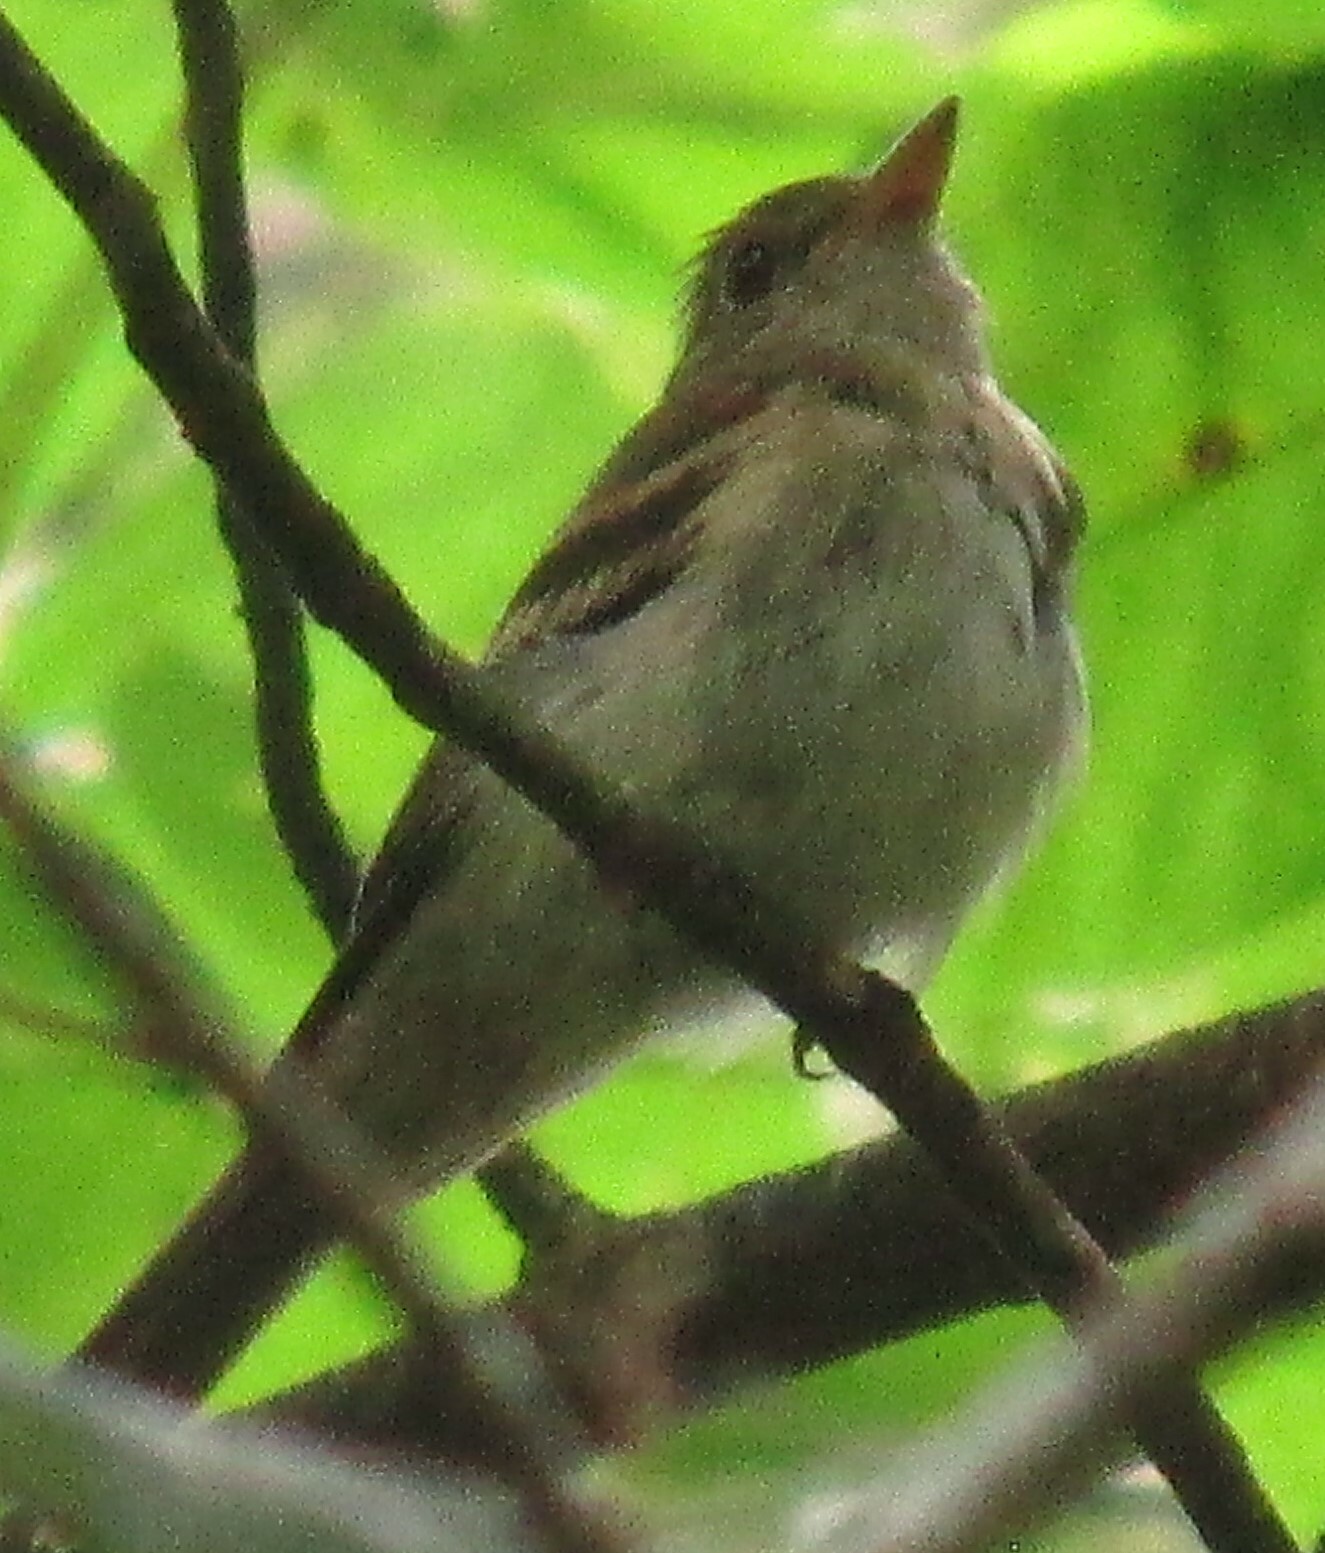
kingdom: Animalia
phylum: Chordata
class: Aves
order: Passeriformes
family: Tyrannidae
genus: Empidonax
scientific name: Empidonax virescens
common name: Acadian flycatcher
